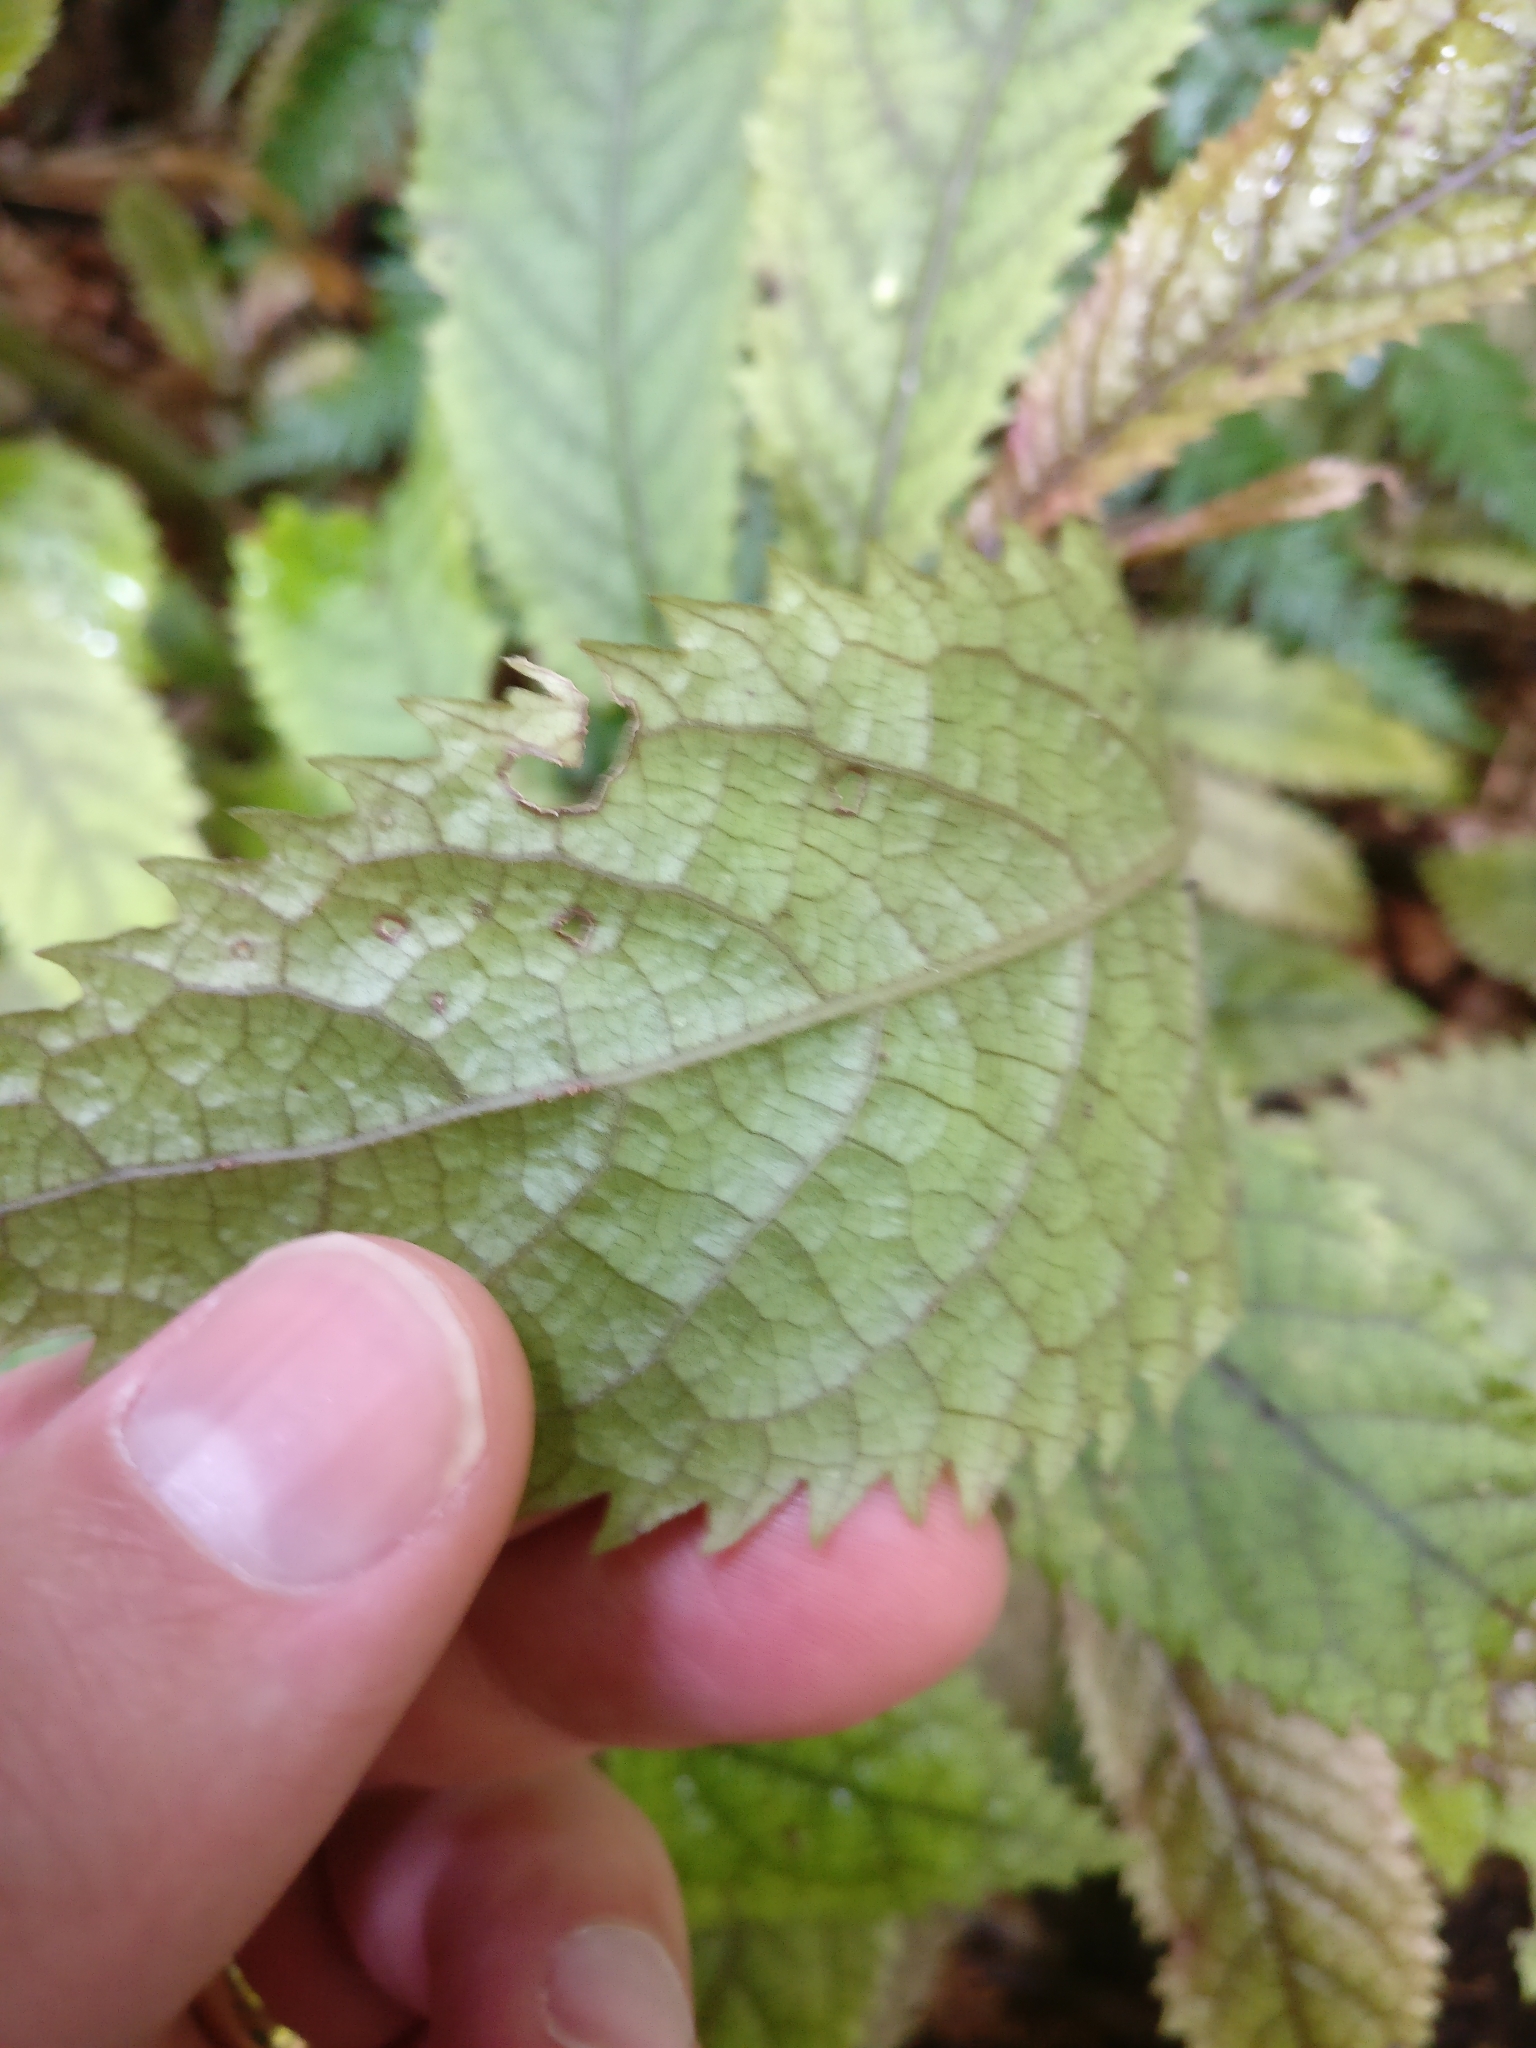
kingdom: Plantae
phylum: Tracheophyta
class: Magnoliopsida
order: Rosales
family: Urticaceae
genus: Elatostema
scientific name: Elatostema rugosum
